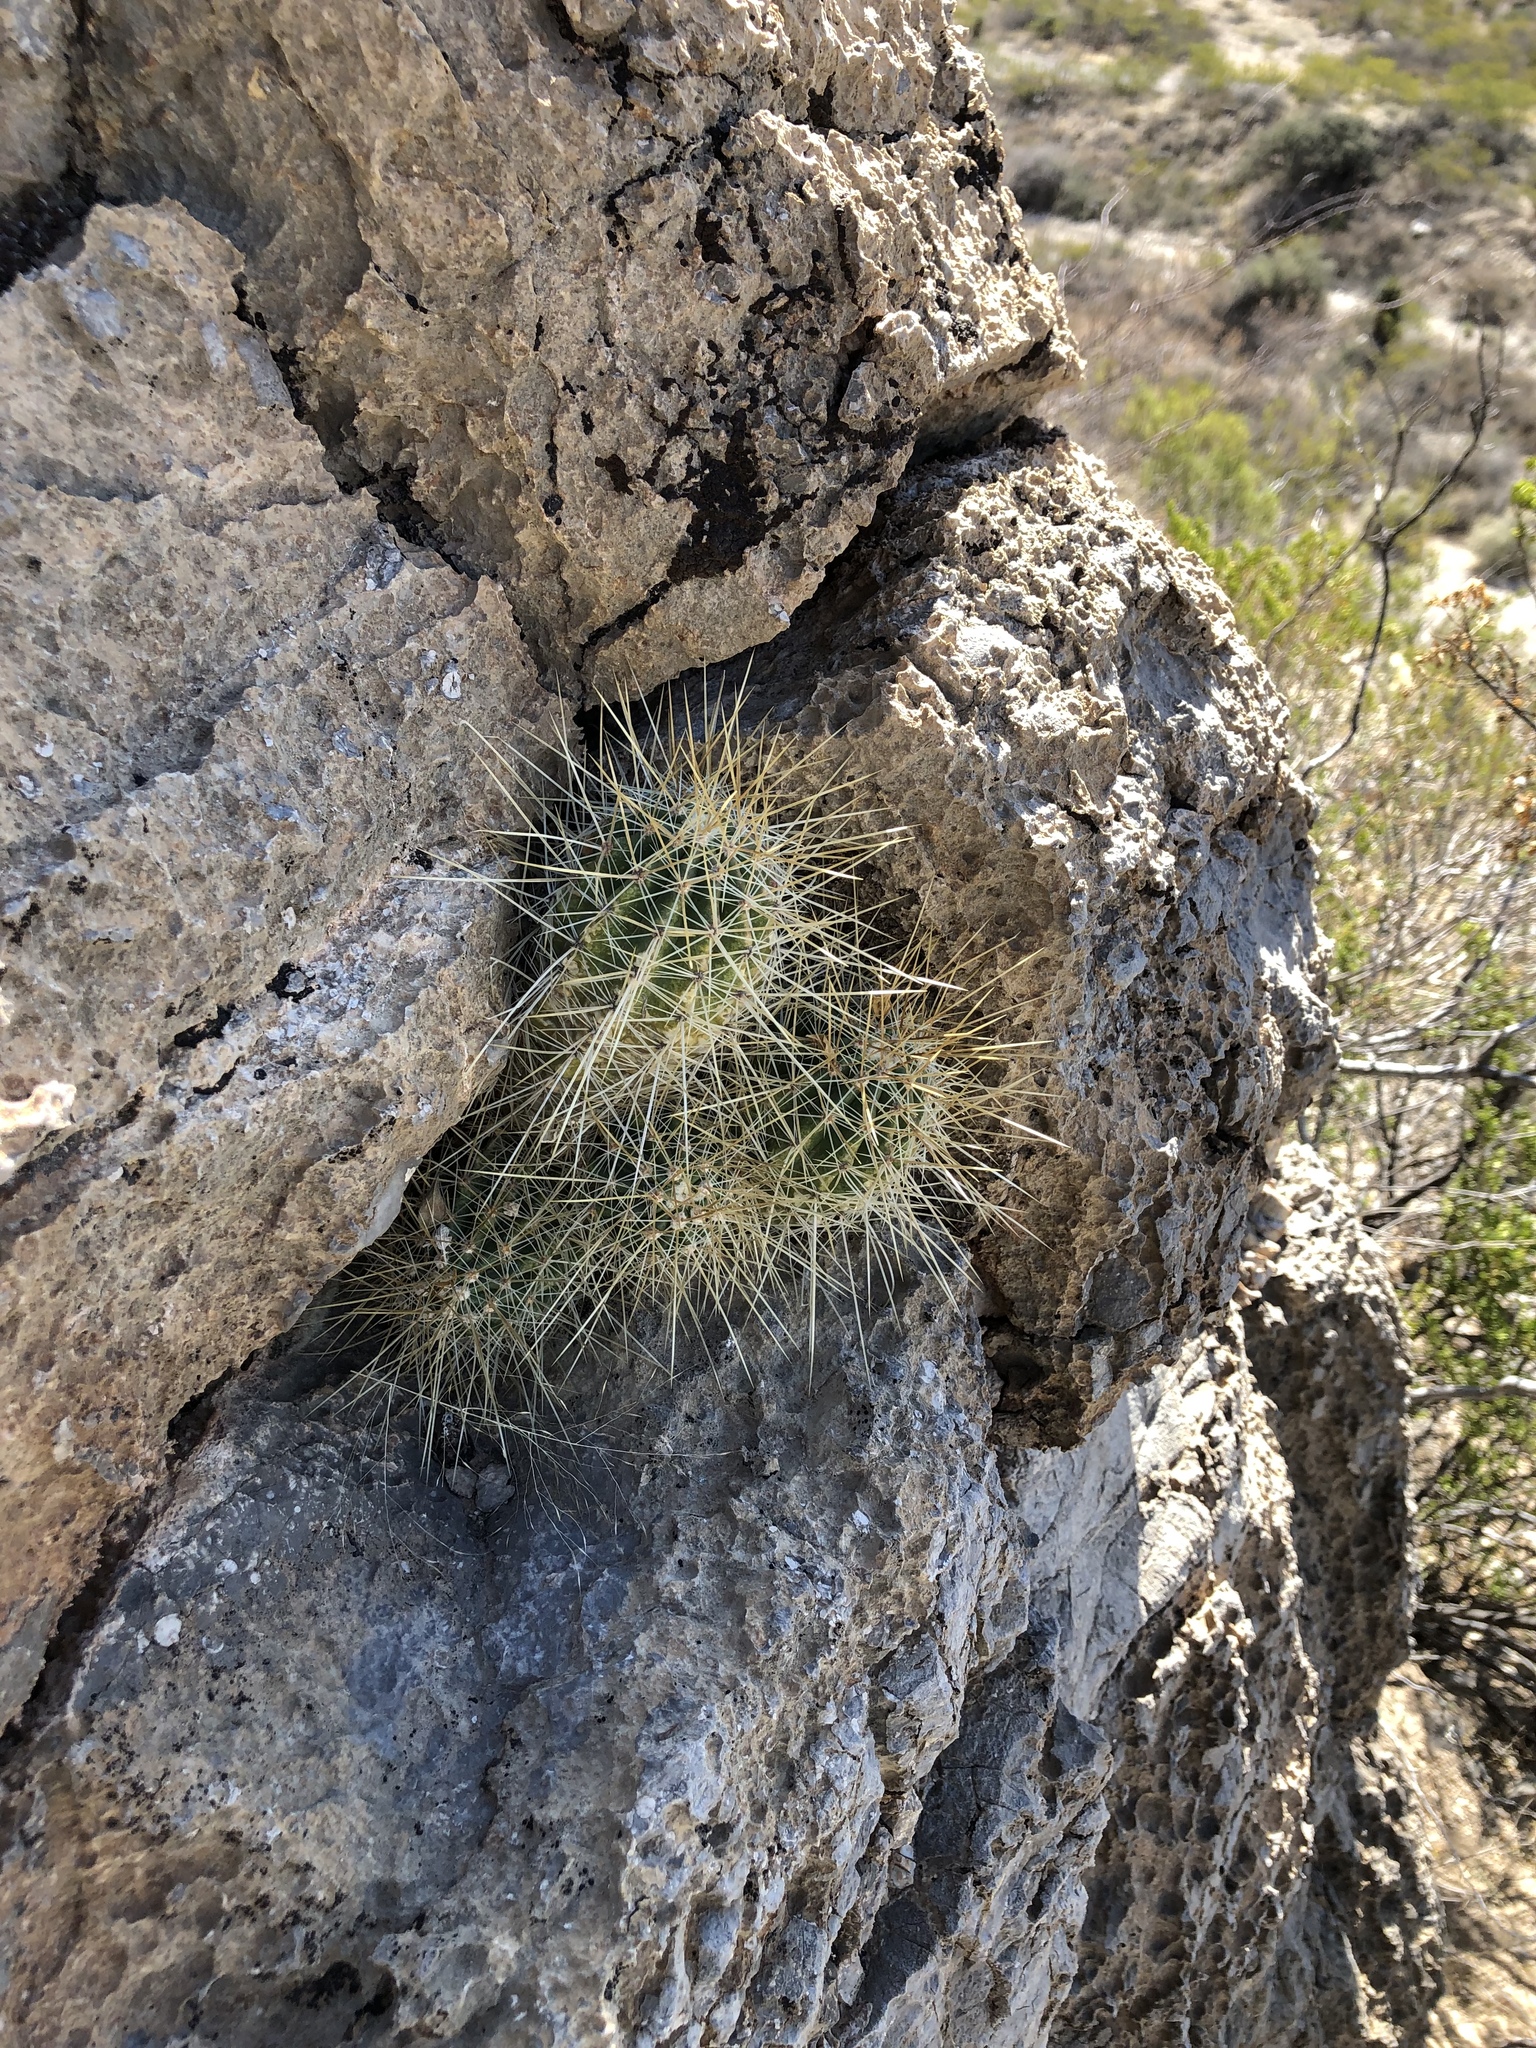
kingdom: Plantae
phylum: Tracheophyta
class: Magnoliopsida
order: Caryophyllales
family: Cactaceae
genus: Echinocereus
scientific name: Echinocereus stramineus
